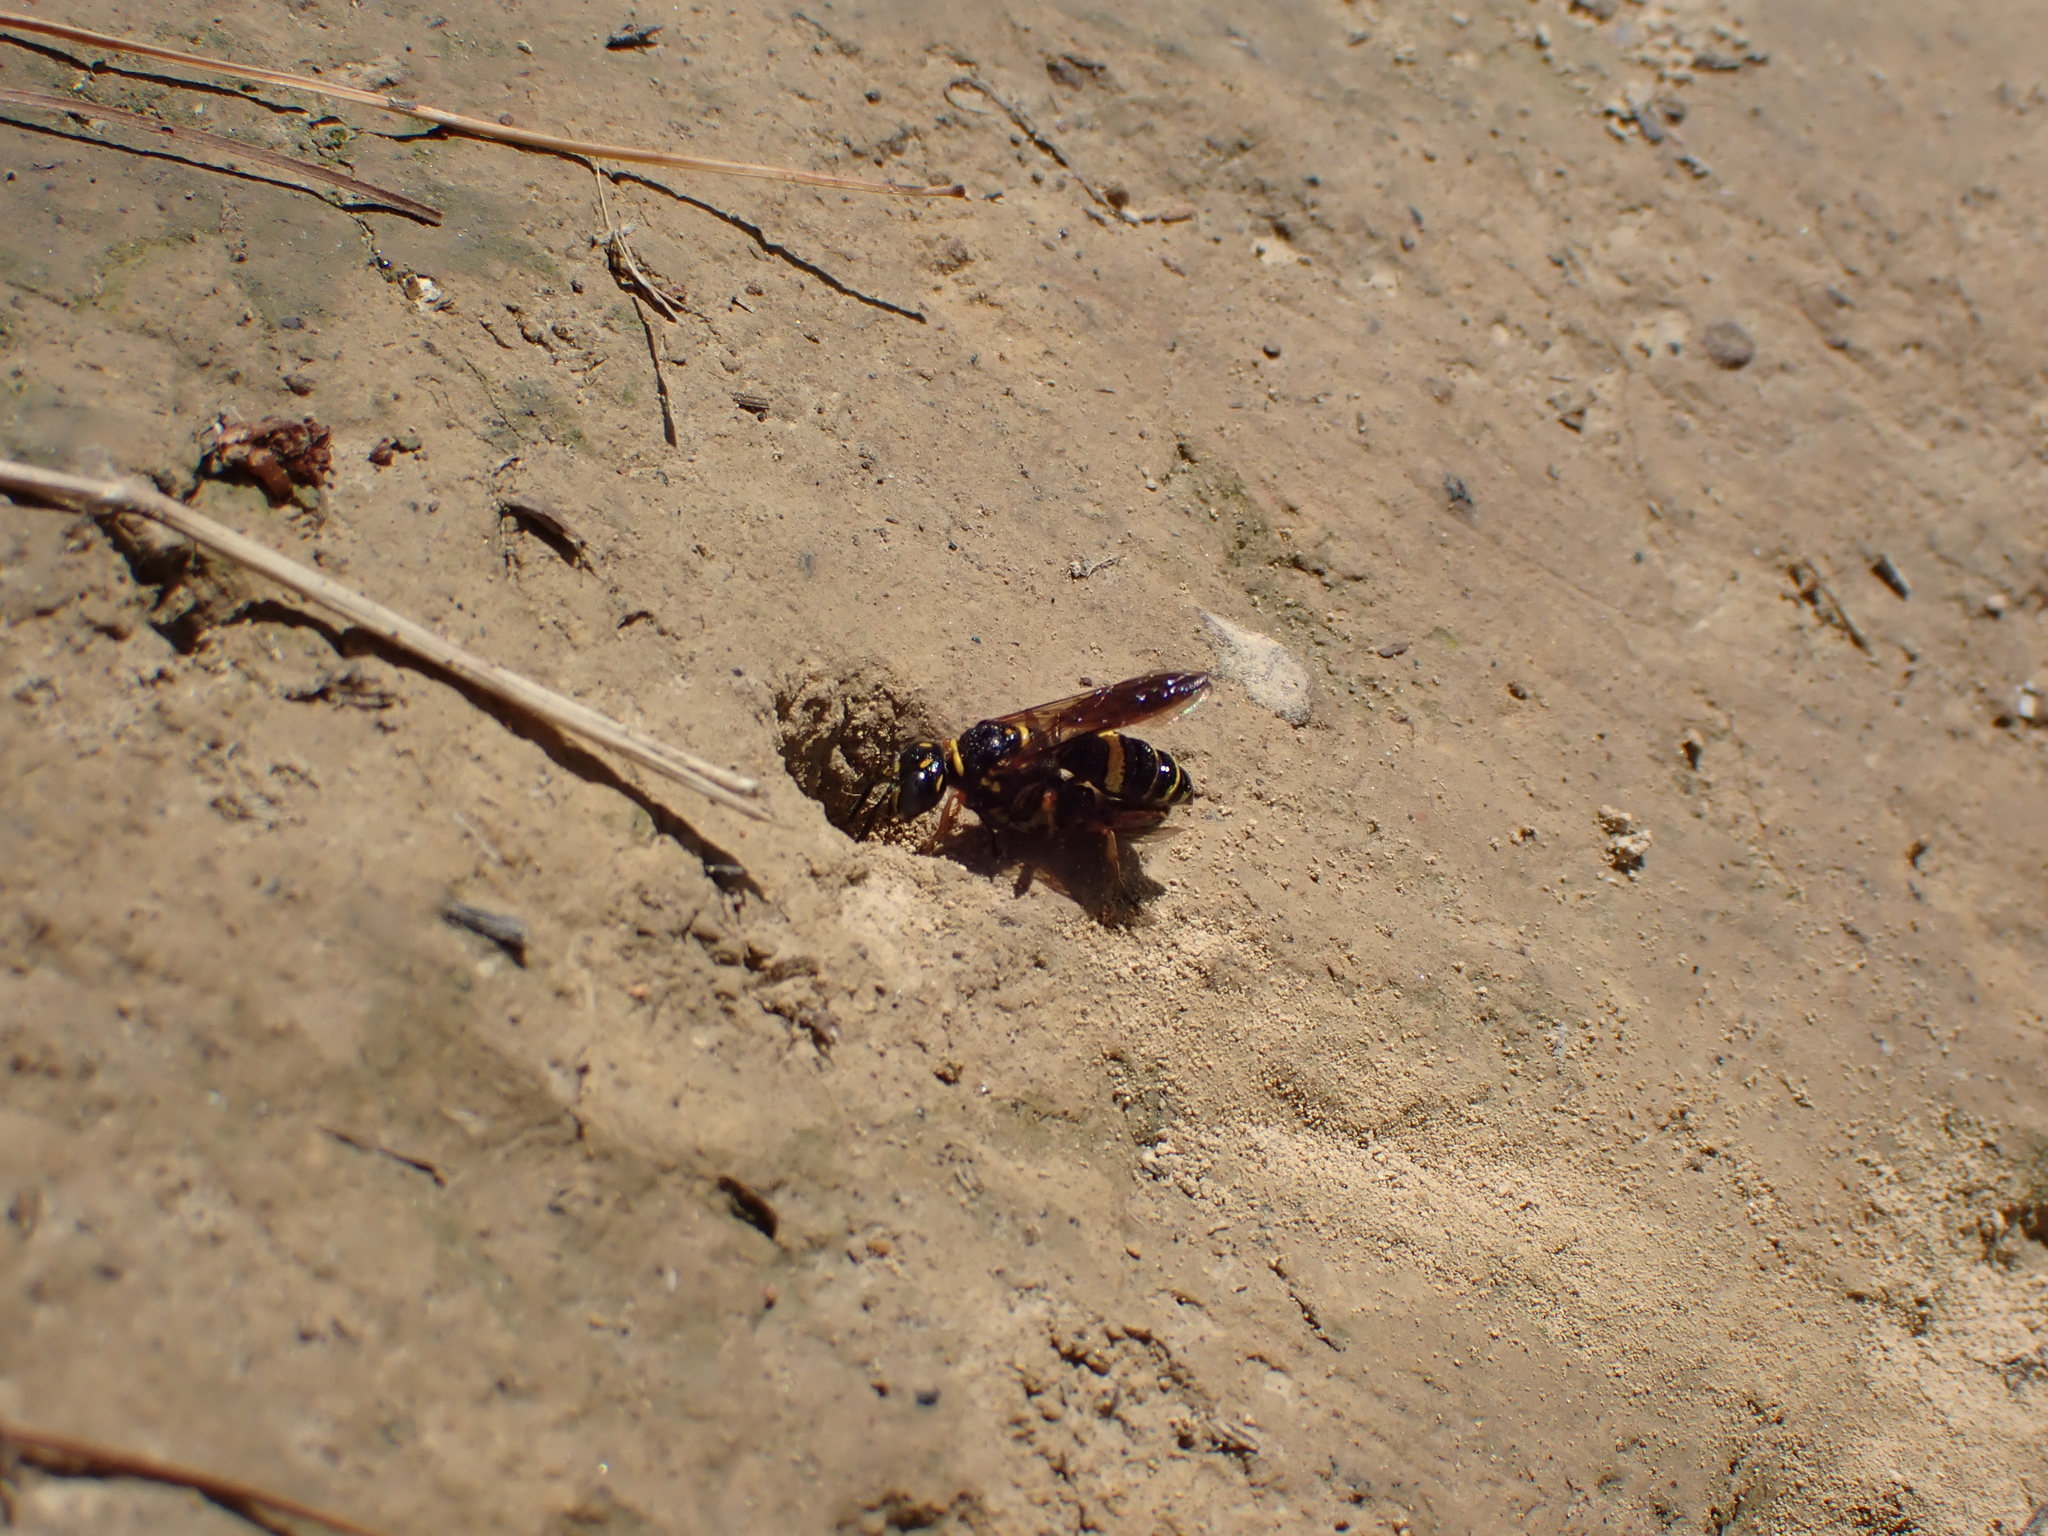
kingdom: Animalia
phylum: Arthropoda
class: Insecta
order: Hymenoptera
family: Crabronidae
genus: Philanthus
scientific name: Philanthus gibbosus
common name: Humped beewolf
